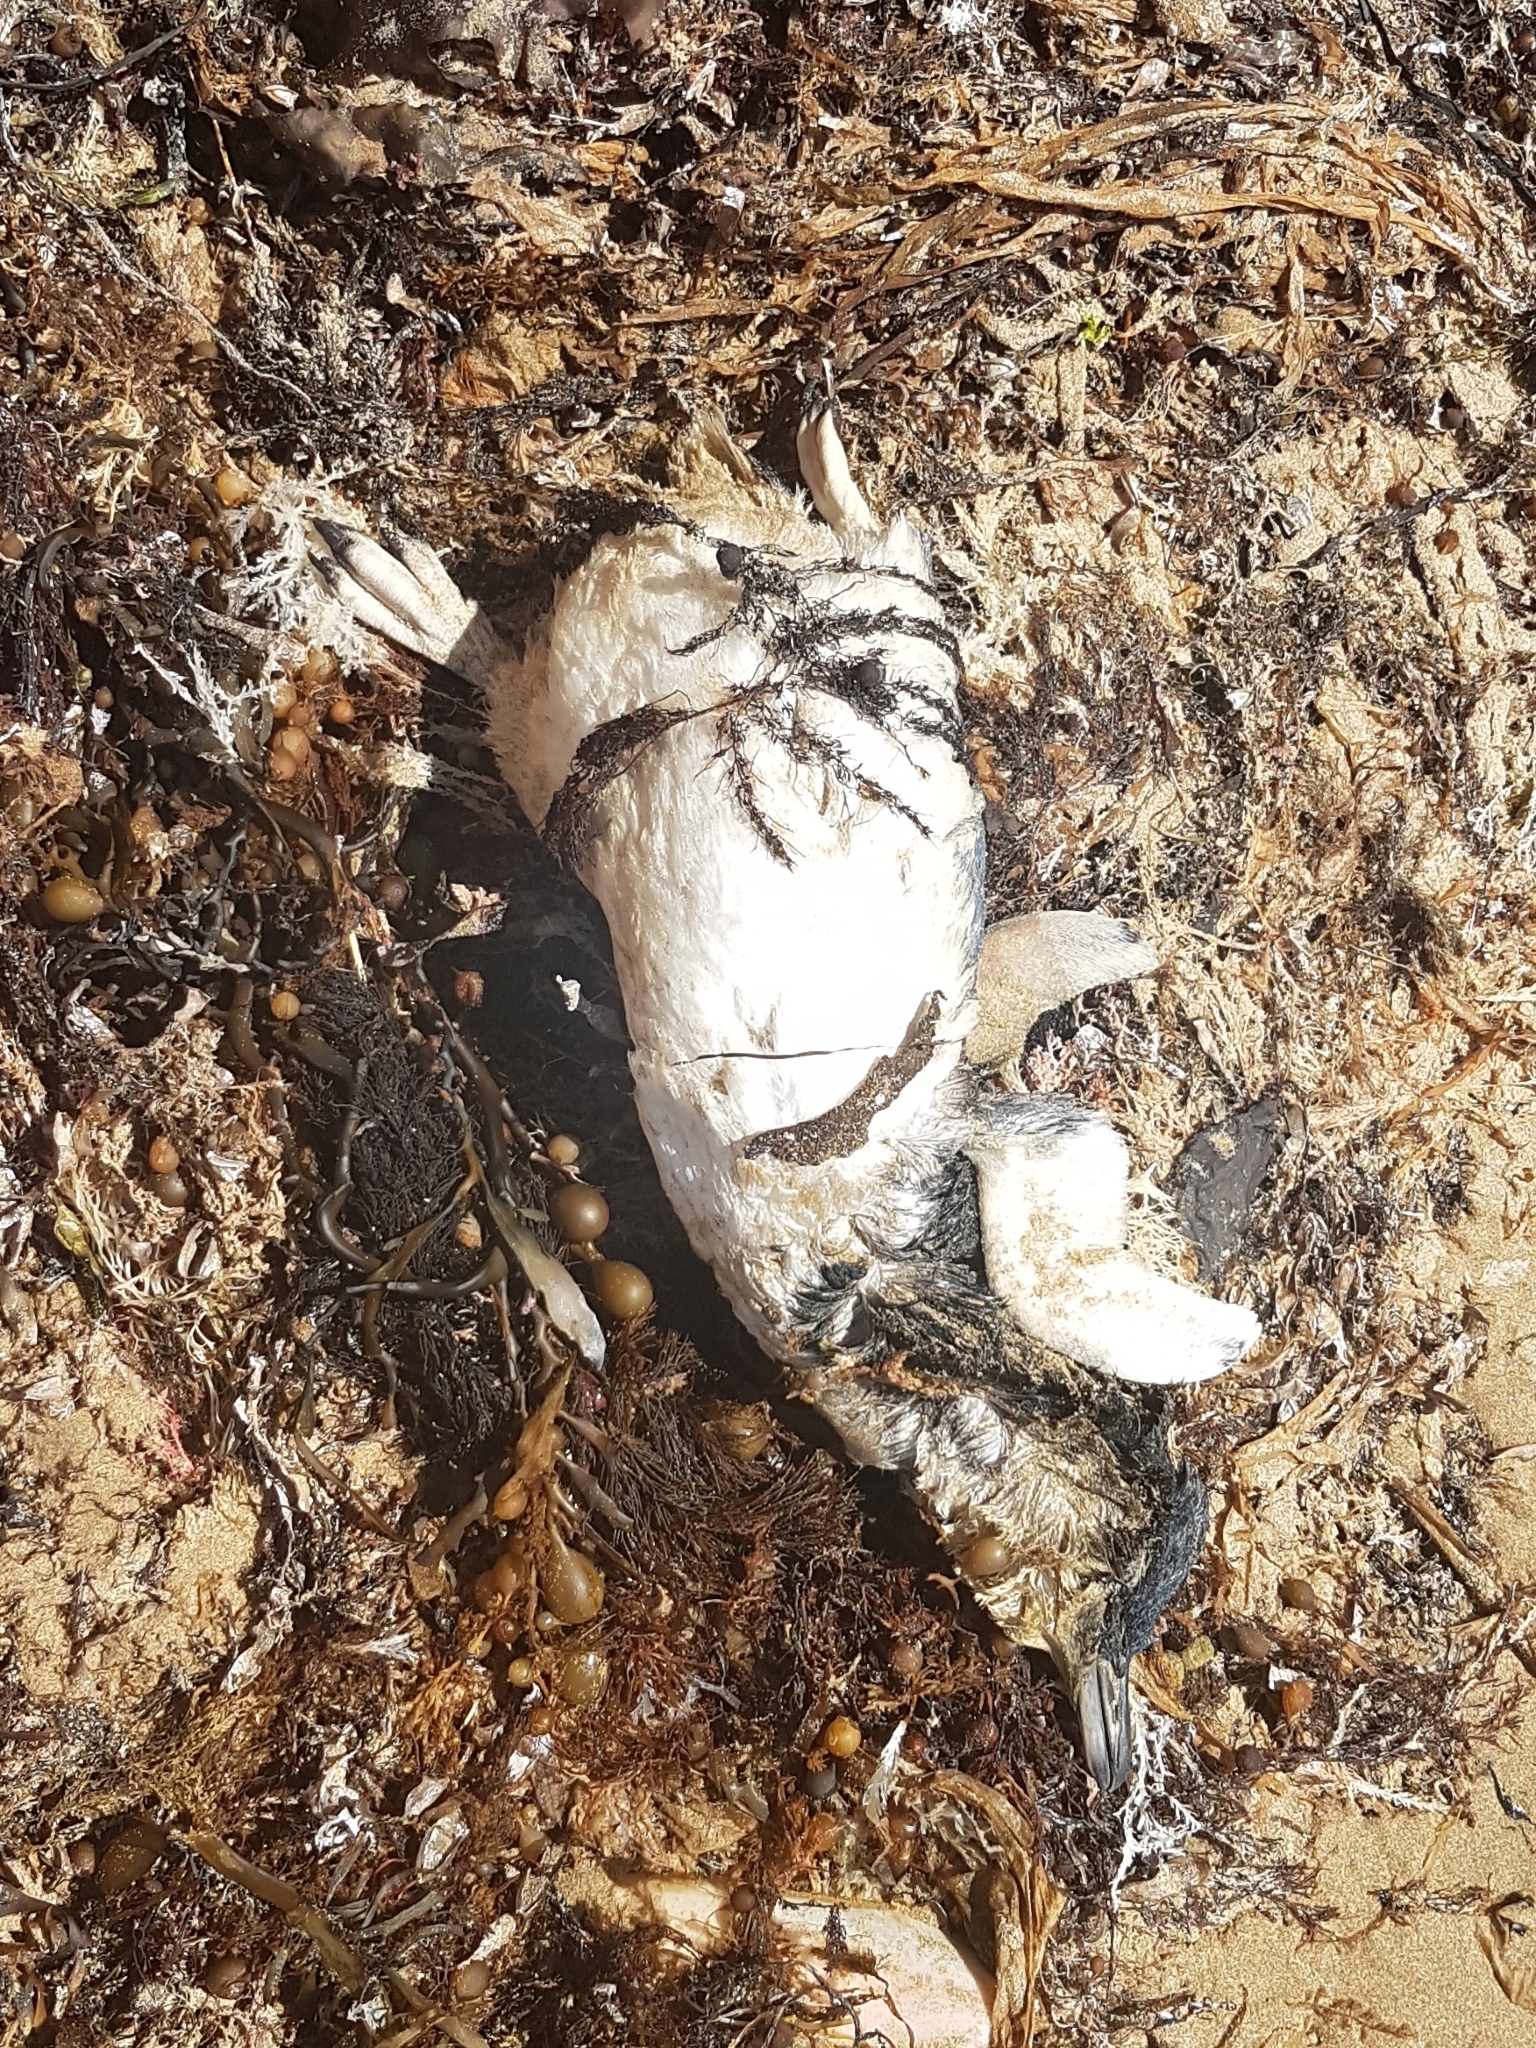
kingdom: Animalia
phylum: Chordata
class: Aves
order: Sphenisciformes
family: Spheniscidae
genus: Eudyptula
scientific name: Eudyptula minor
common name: Little penguin
